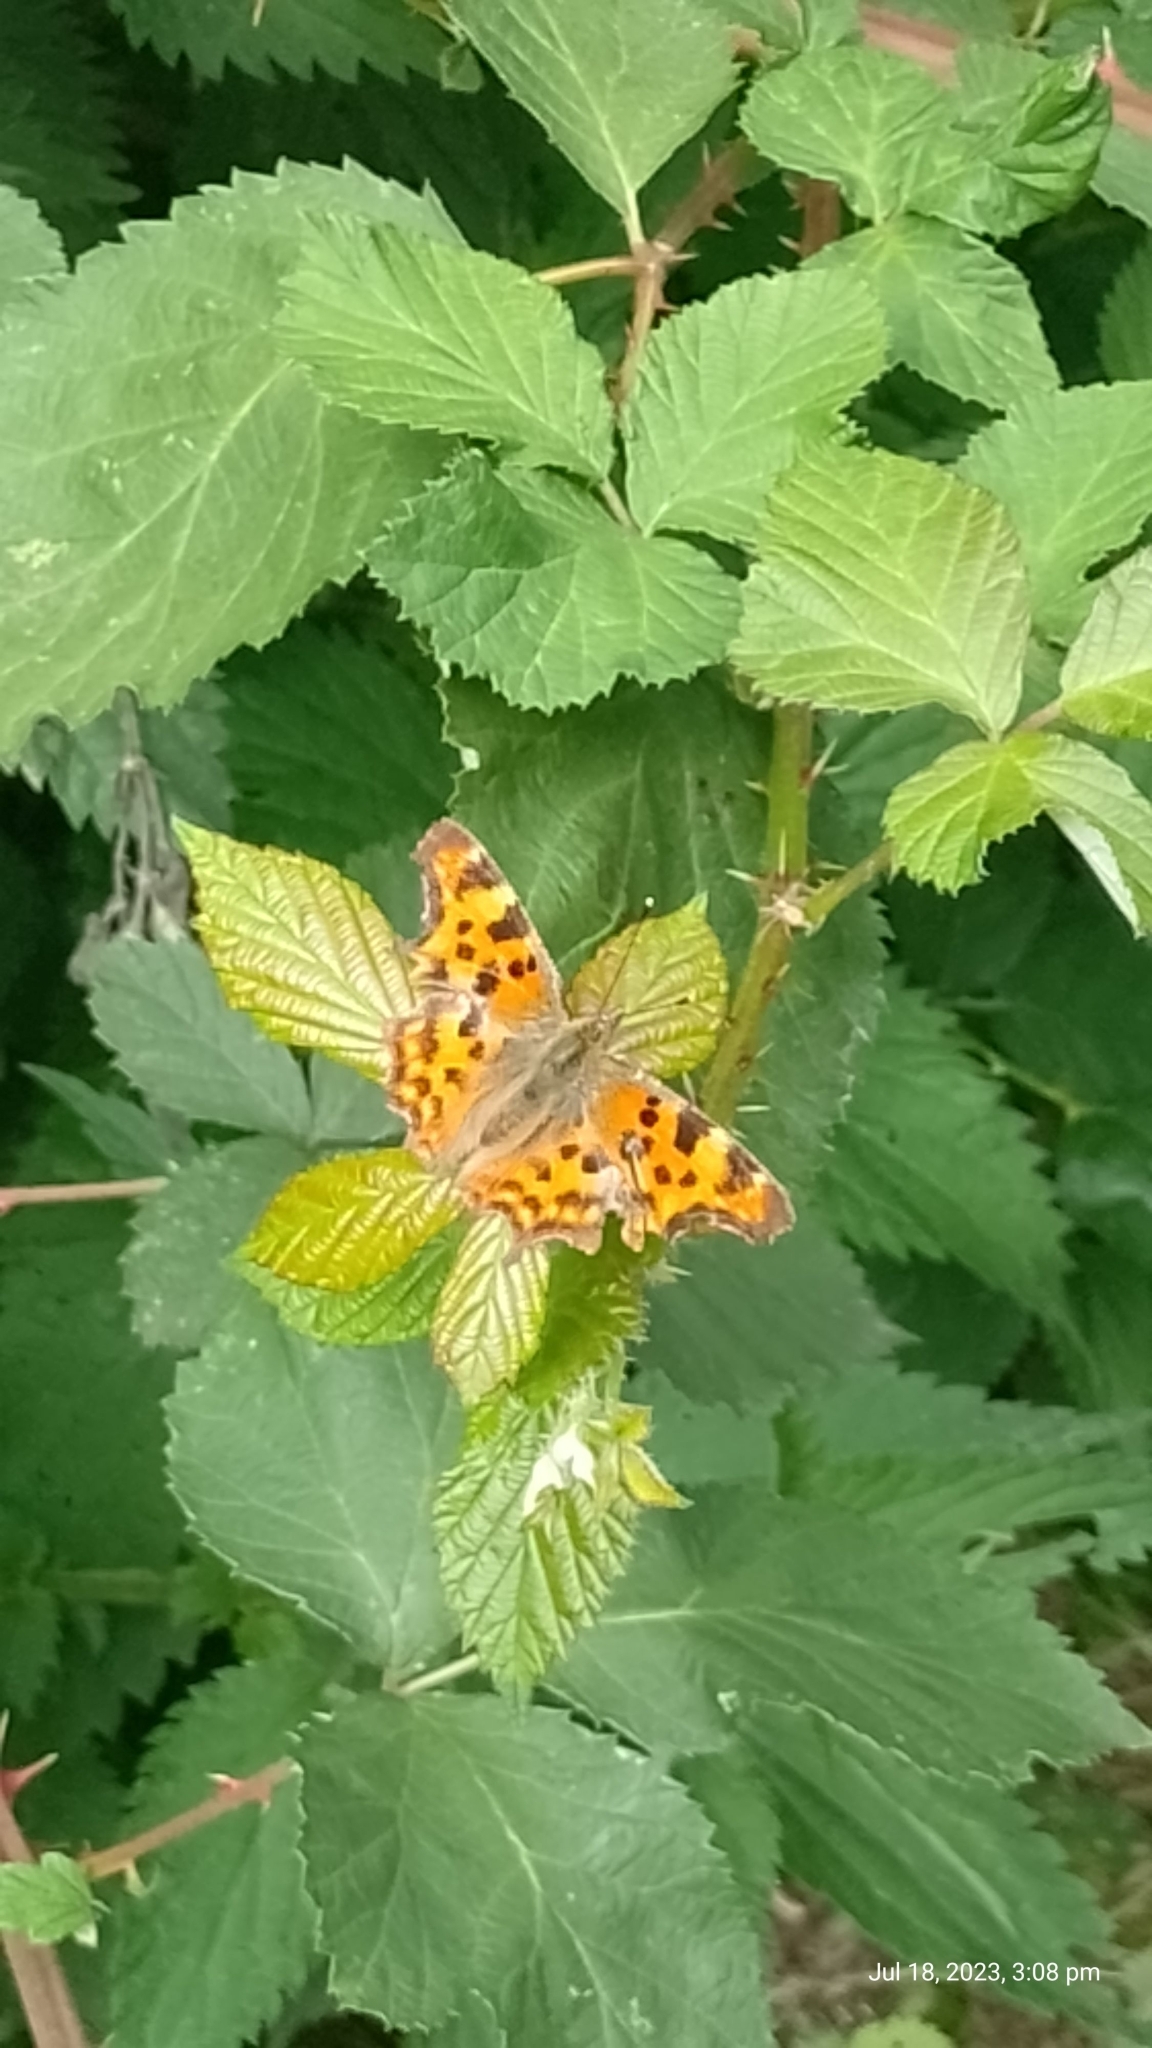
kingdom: Animalia
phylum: Arthropoda
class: Insecta
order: Lepidoptera
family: Nymphalidae
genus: Polygonia
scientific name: Polygonia c-album
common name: Comma
